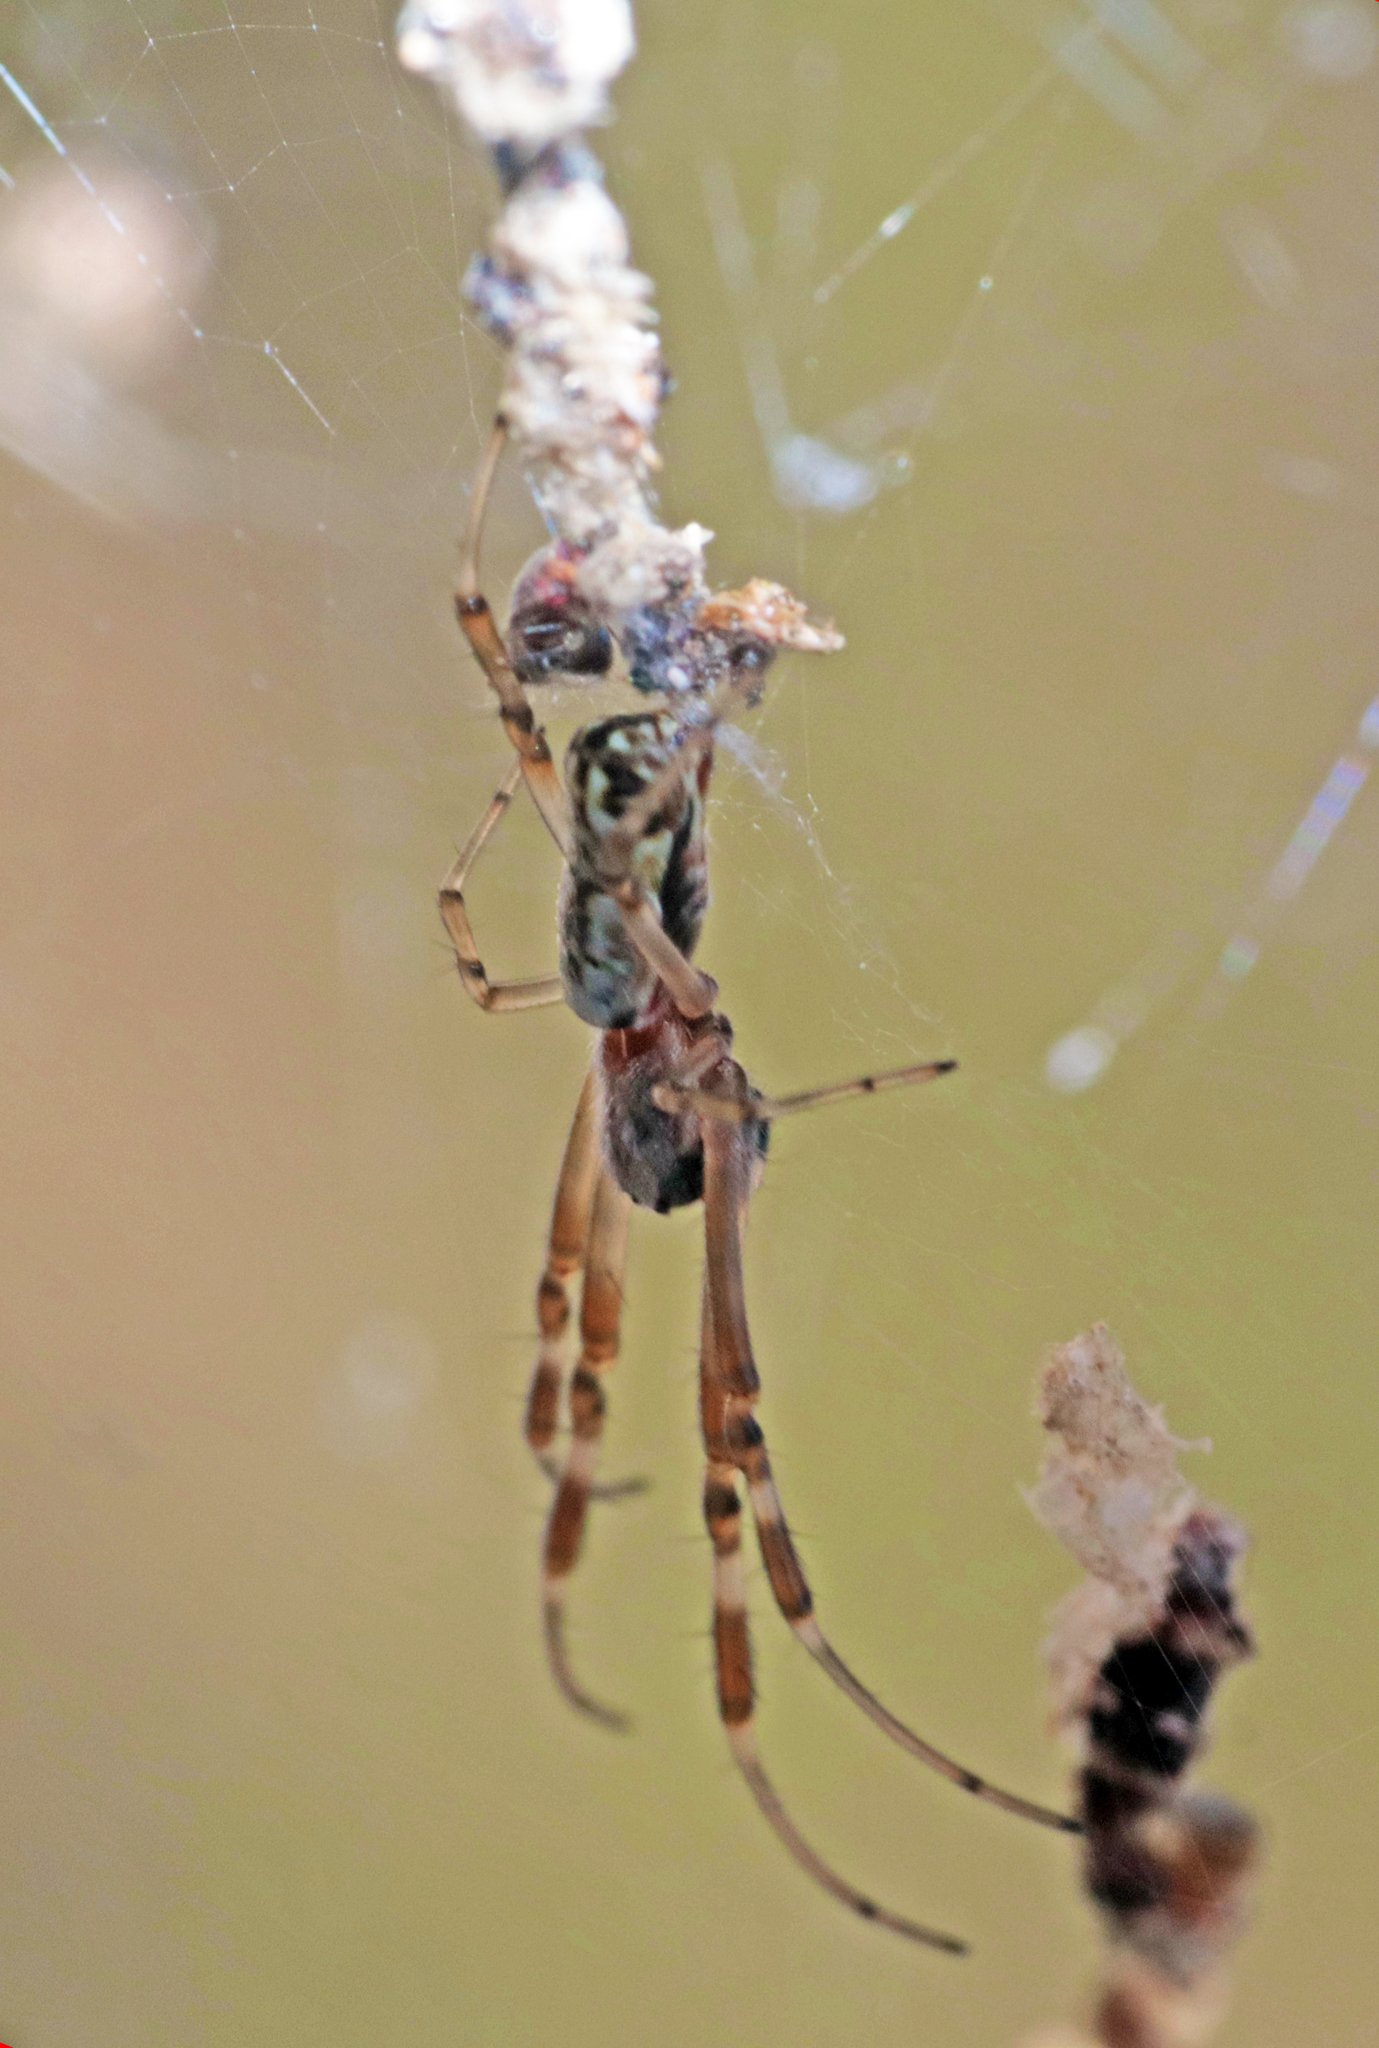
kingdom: Animalia
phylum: Arthropoda
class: Arachnida
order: Araneae
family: Araneidae
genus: Trichonephila
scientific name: Trichonephila edulis
